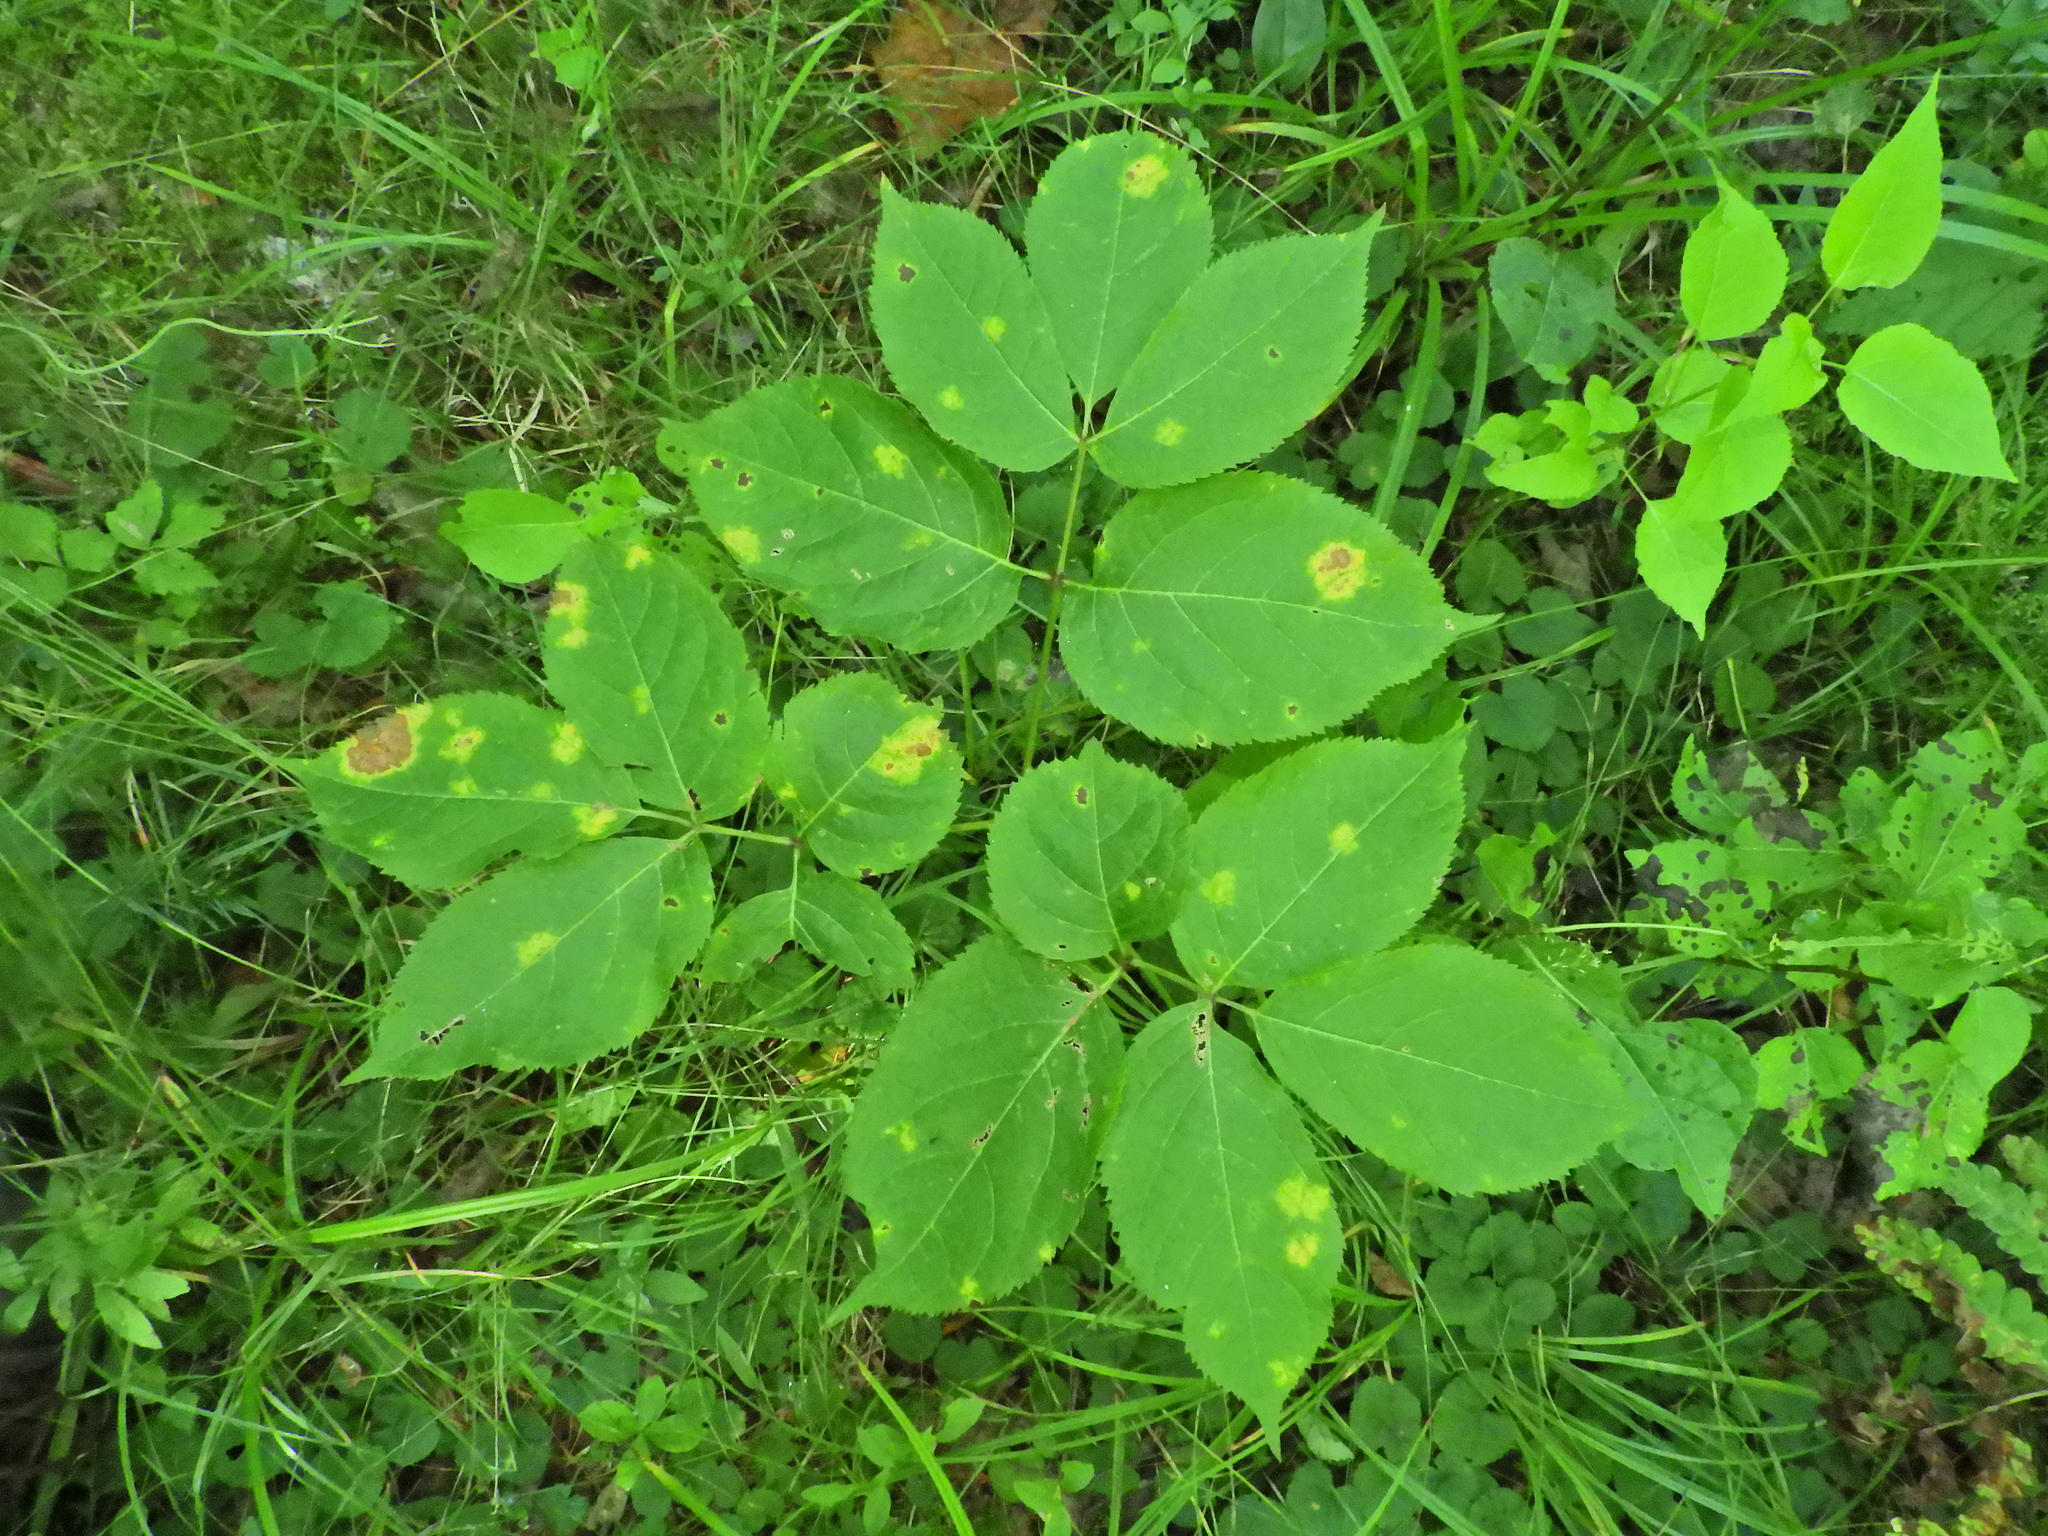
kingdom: Plantae
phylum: Tracheophyta
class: Magnoliopsida
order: Apiales
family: Araliaceae
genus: Aralia
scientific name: Aralia nudicaulis
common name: Wild sarsaparilla
